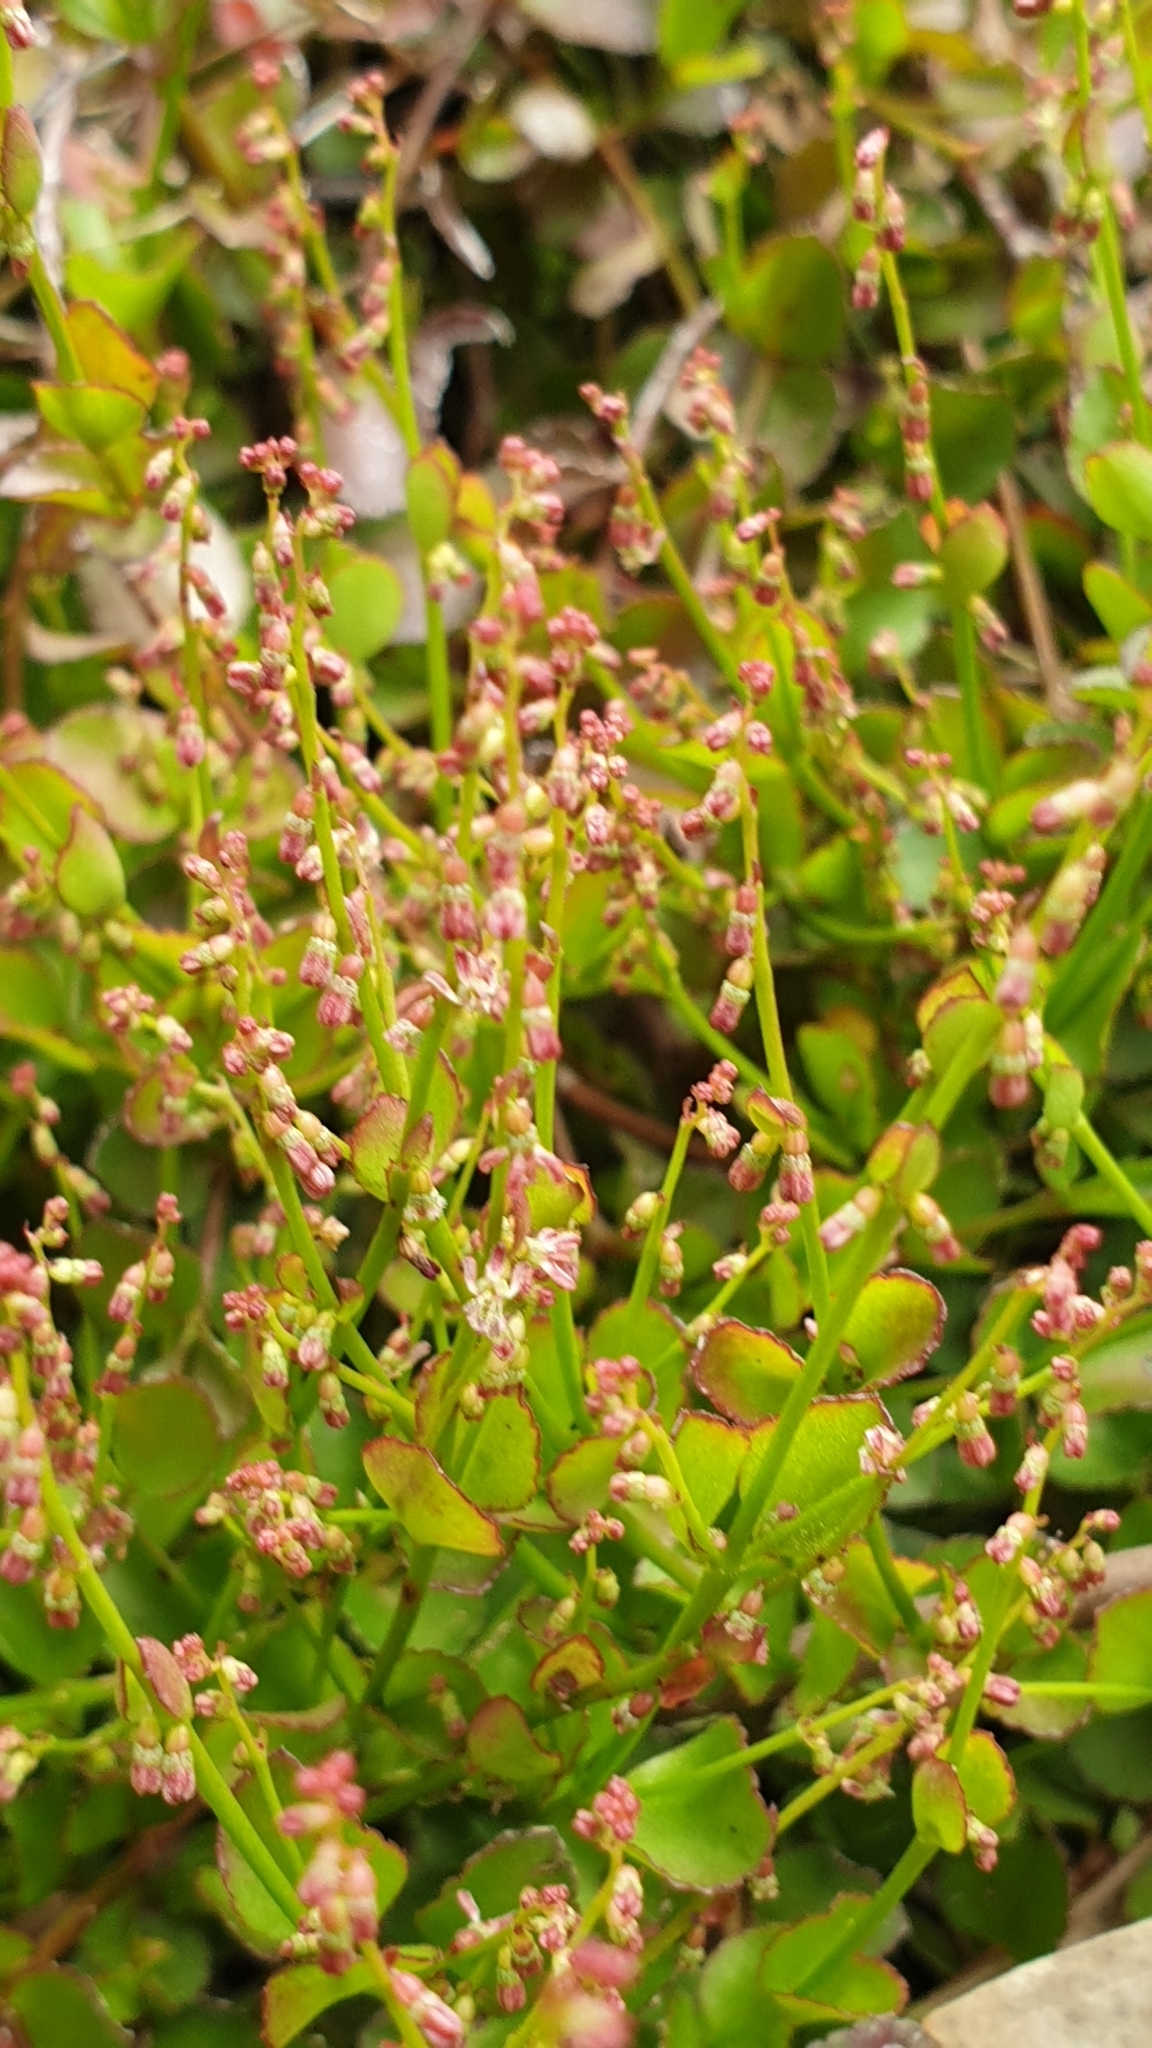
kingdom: Plantae
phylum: Tracheophyta
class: Magnoliopsida
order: Saxifragales
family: Haloragaceae
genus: Gonocarpus
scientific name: Gonocarpus micranthus
